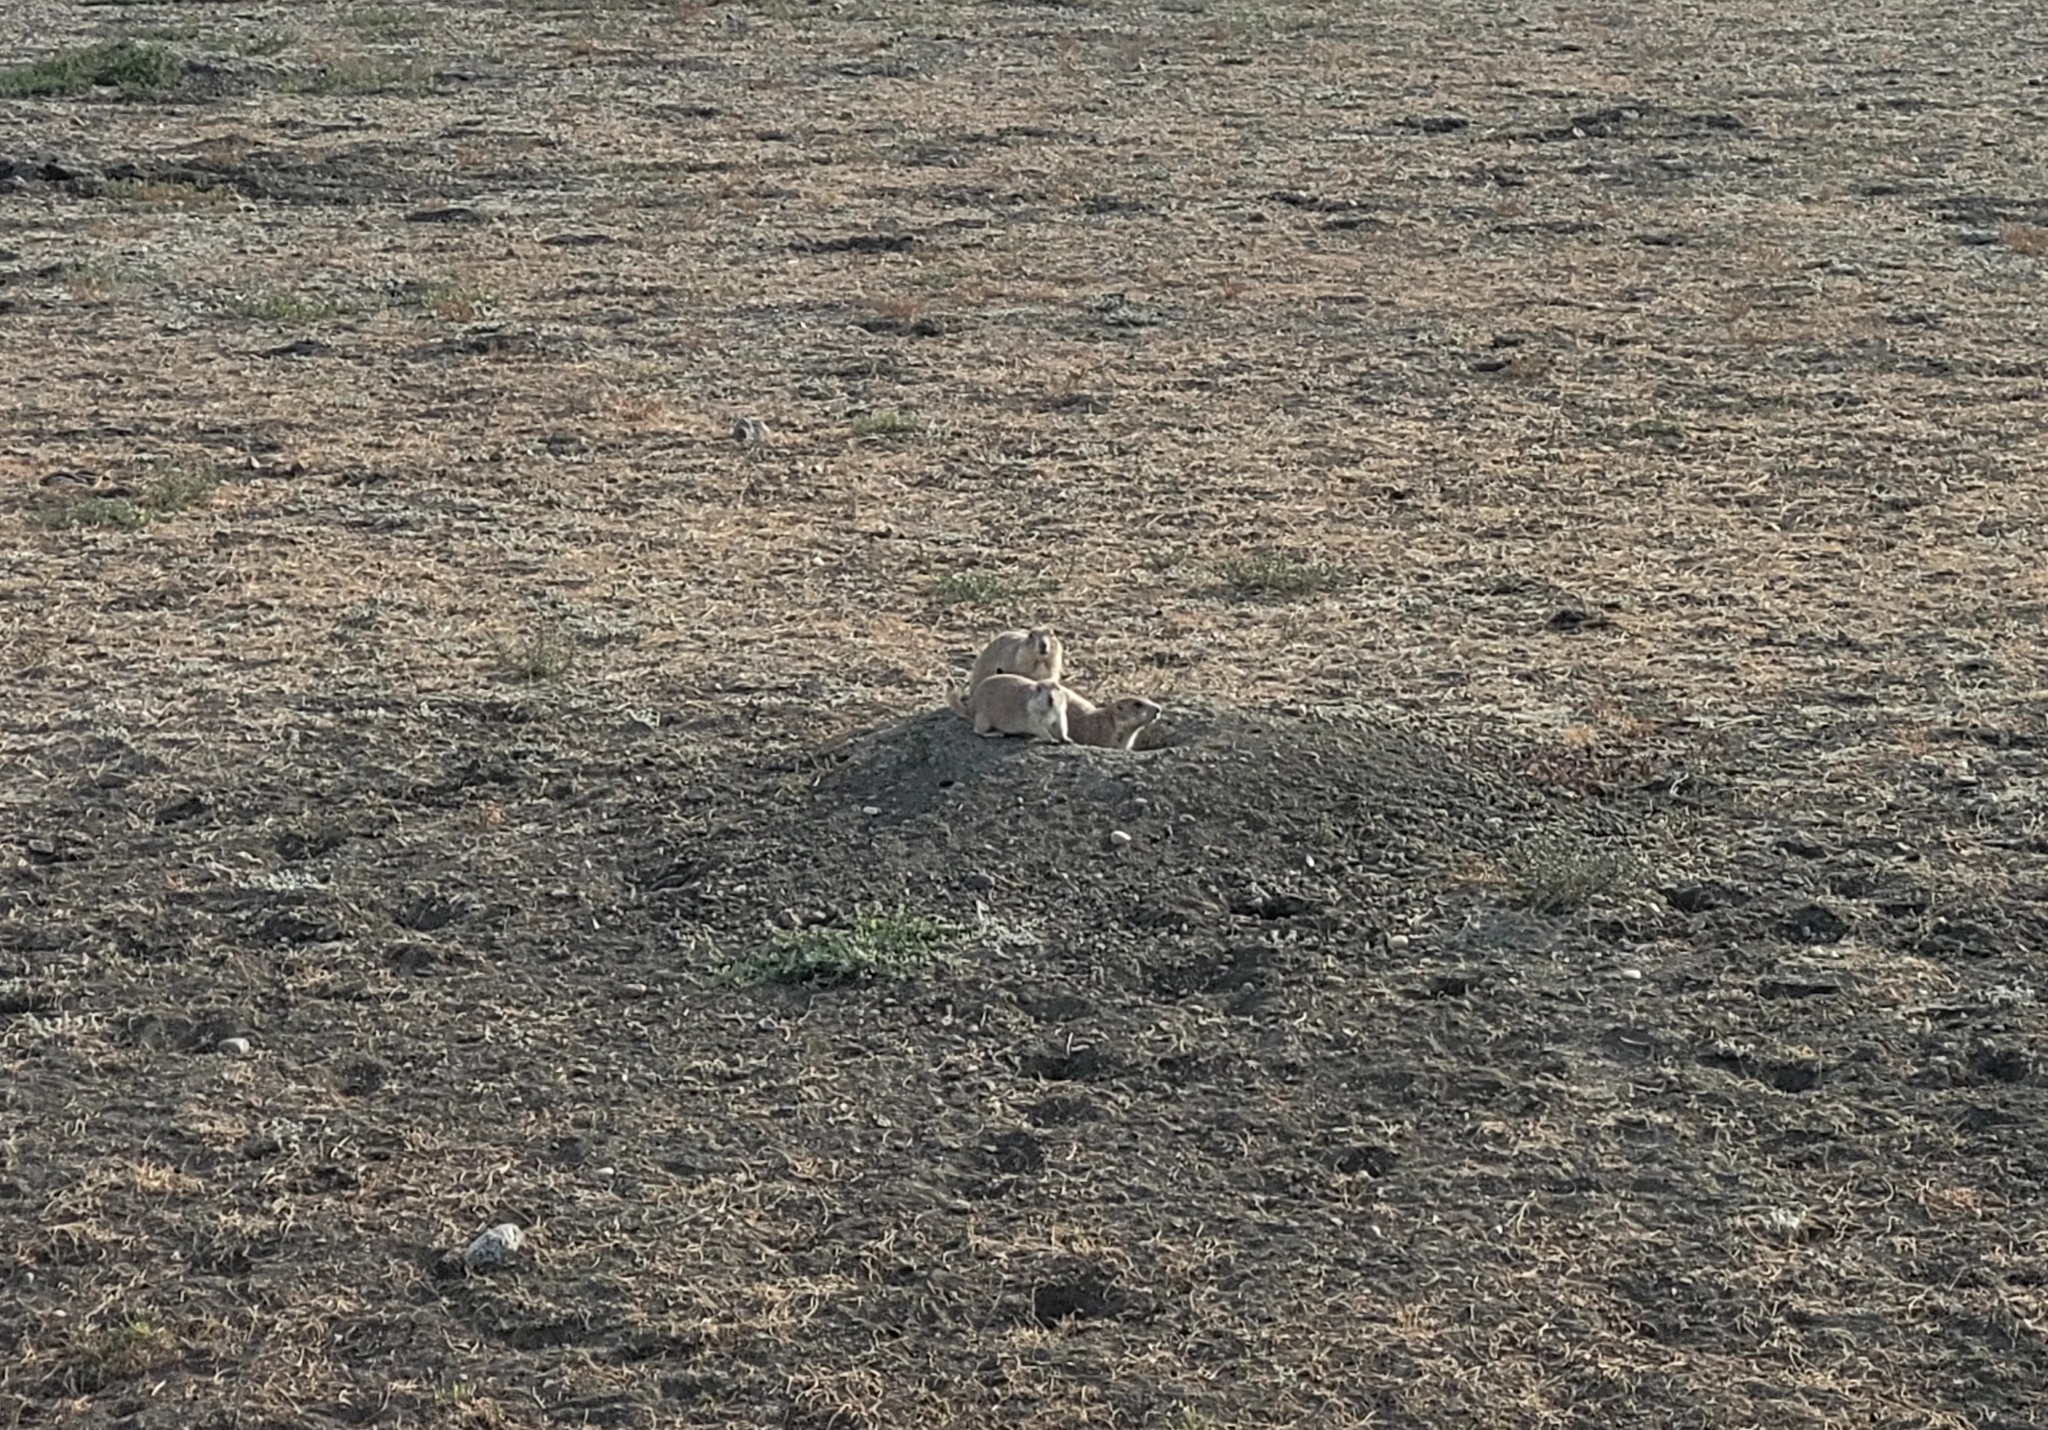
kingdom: Animalia
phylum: Chordata
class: Mammalia
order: Rodentia
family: Sciuridae
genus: Cynomys
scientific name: Cynomys ludovicianus
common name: Black-tailed prairie dog
